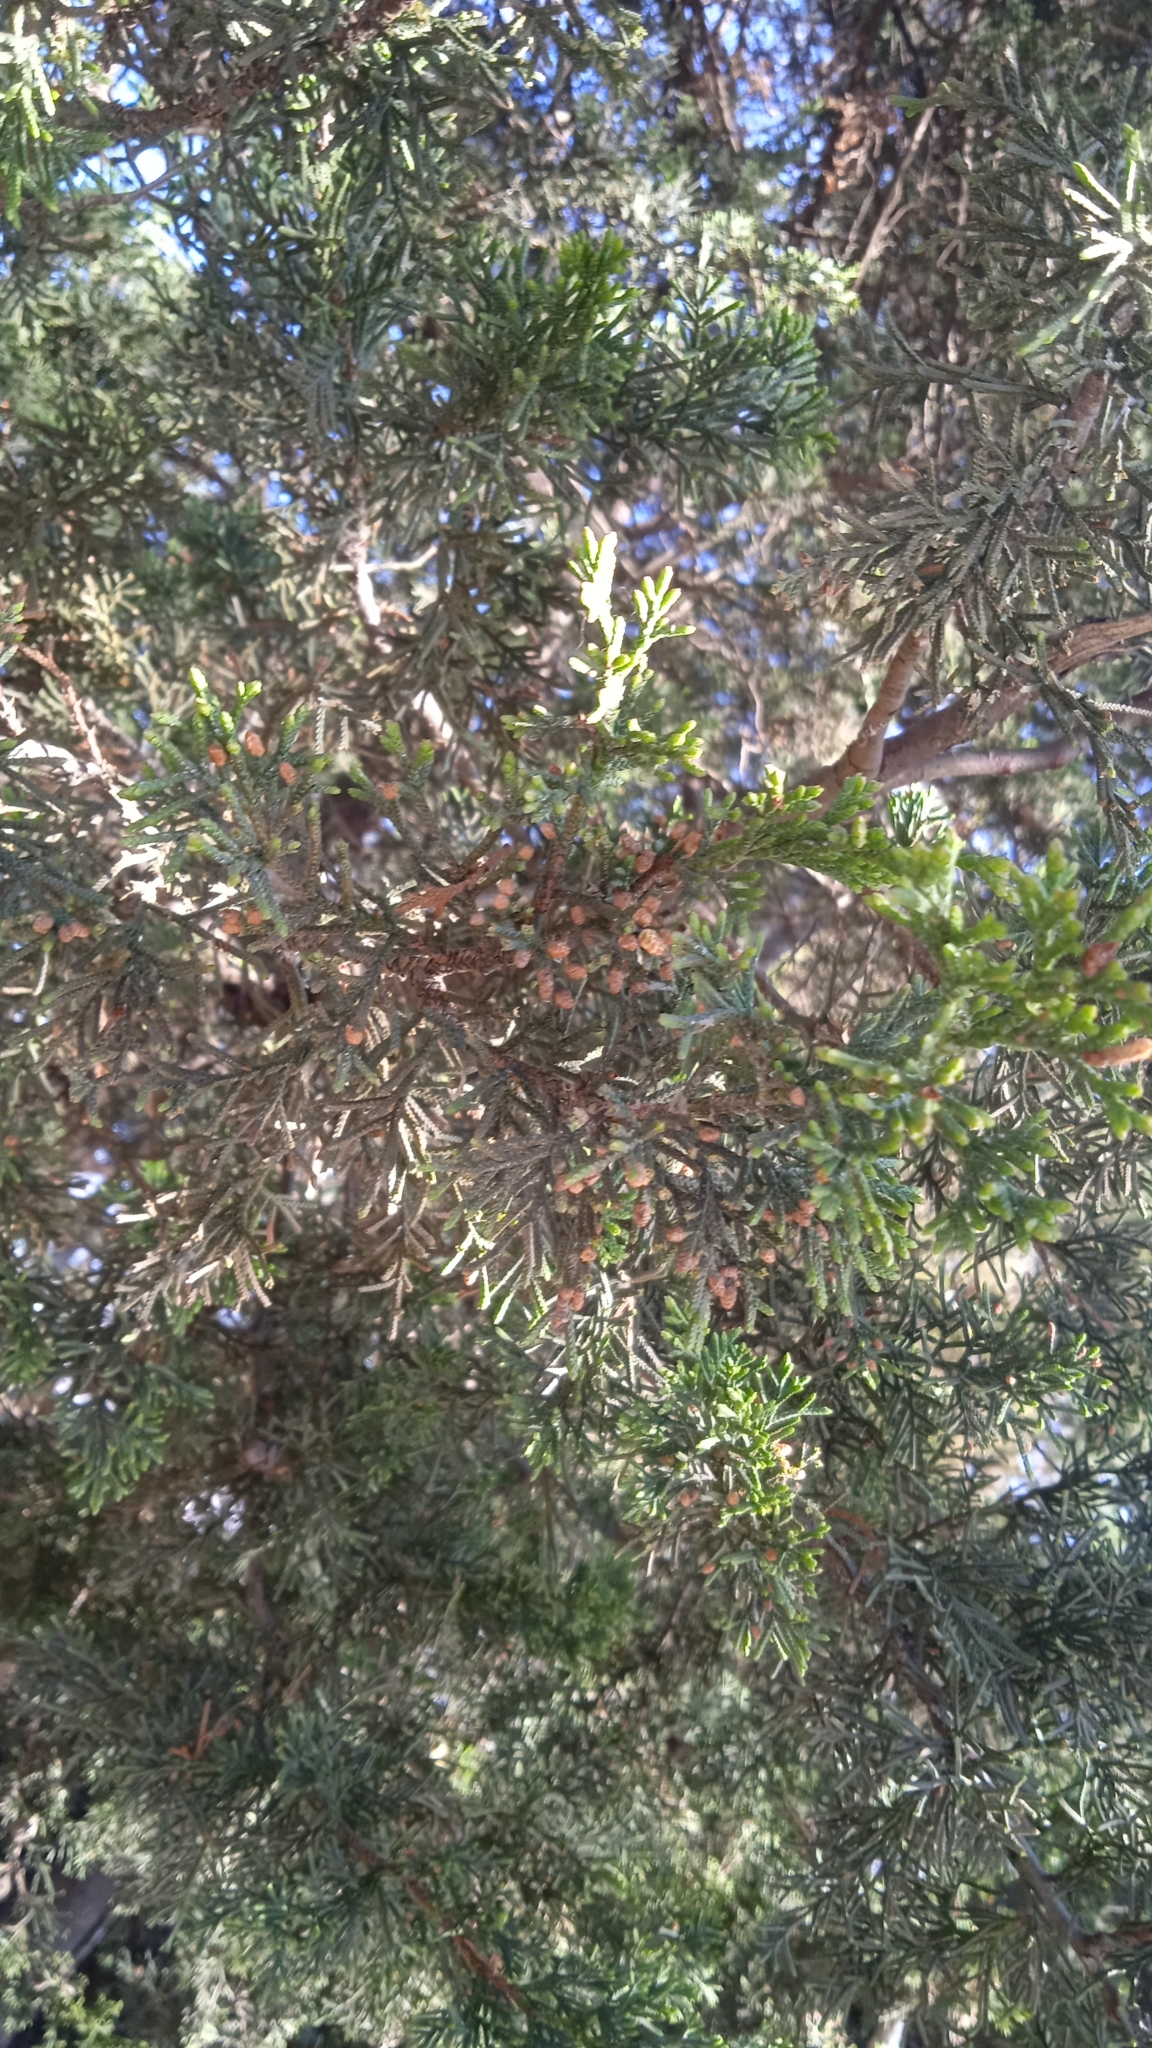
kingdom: Plantae
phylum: Tracheophyta
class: Pinopsida
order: Pinales
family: Cupressaceae
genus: Cupressus
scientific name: Cupressus lusitanica
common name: Mexican cypress
